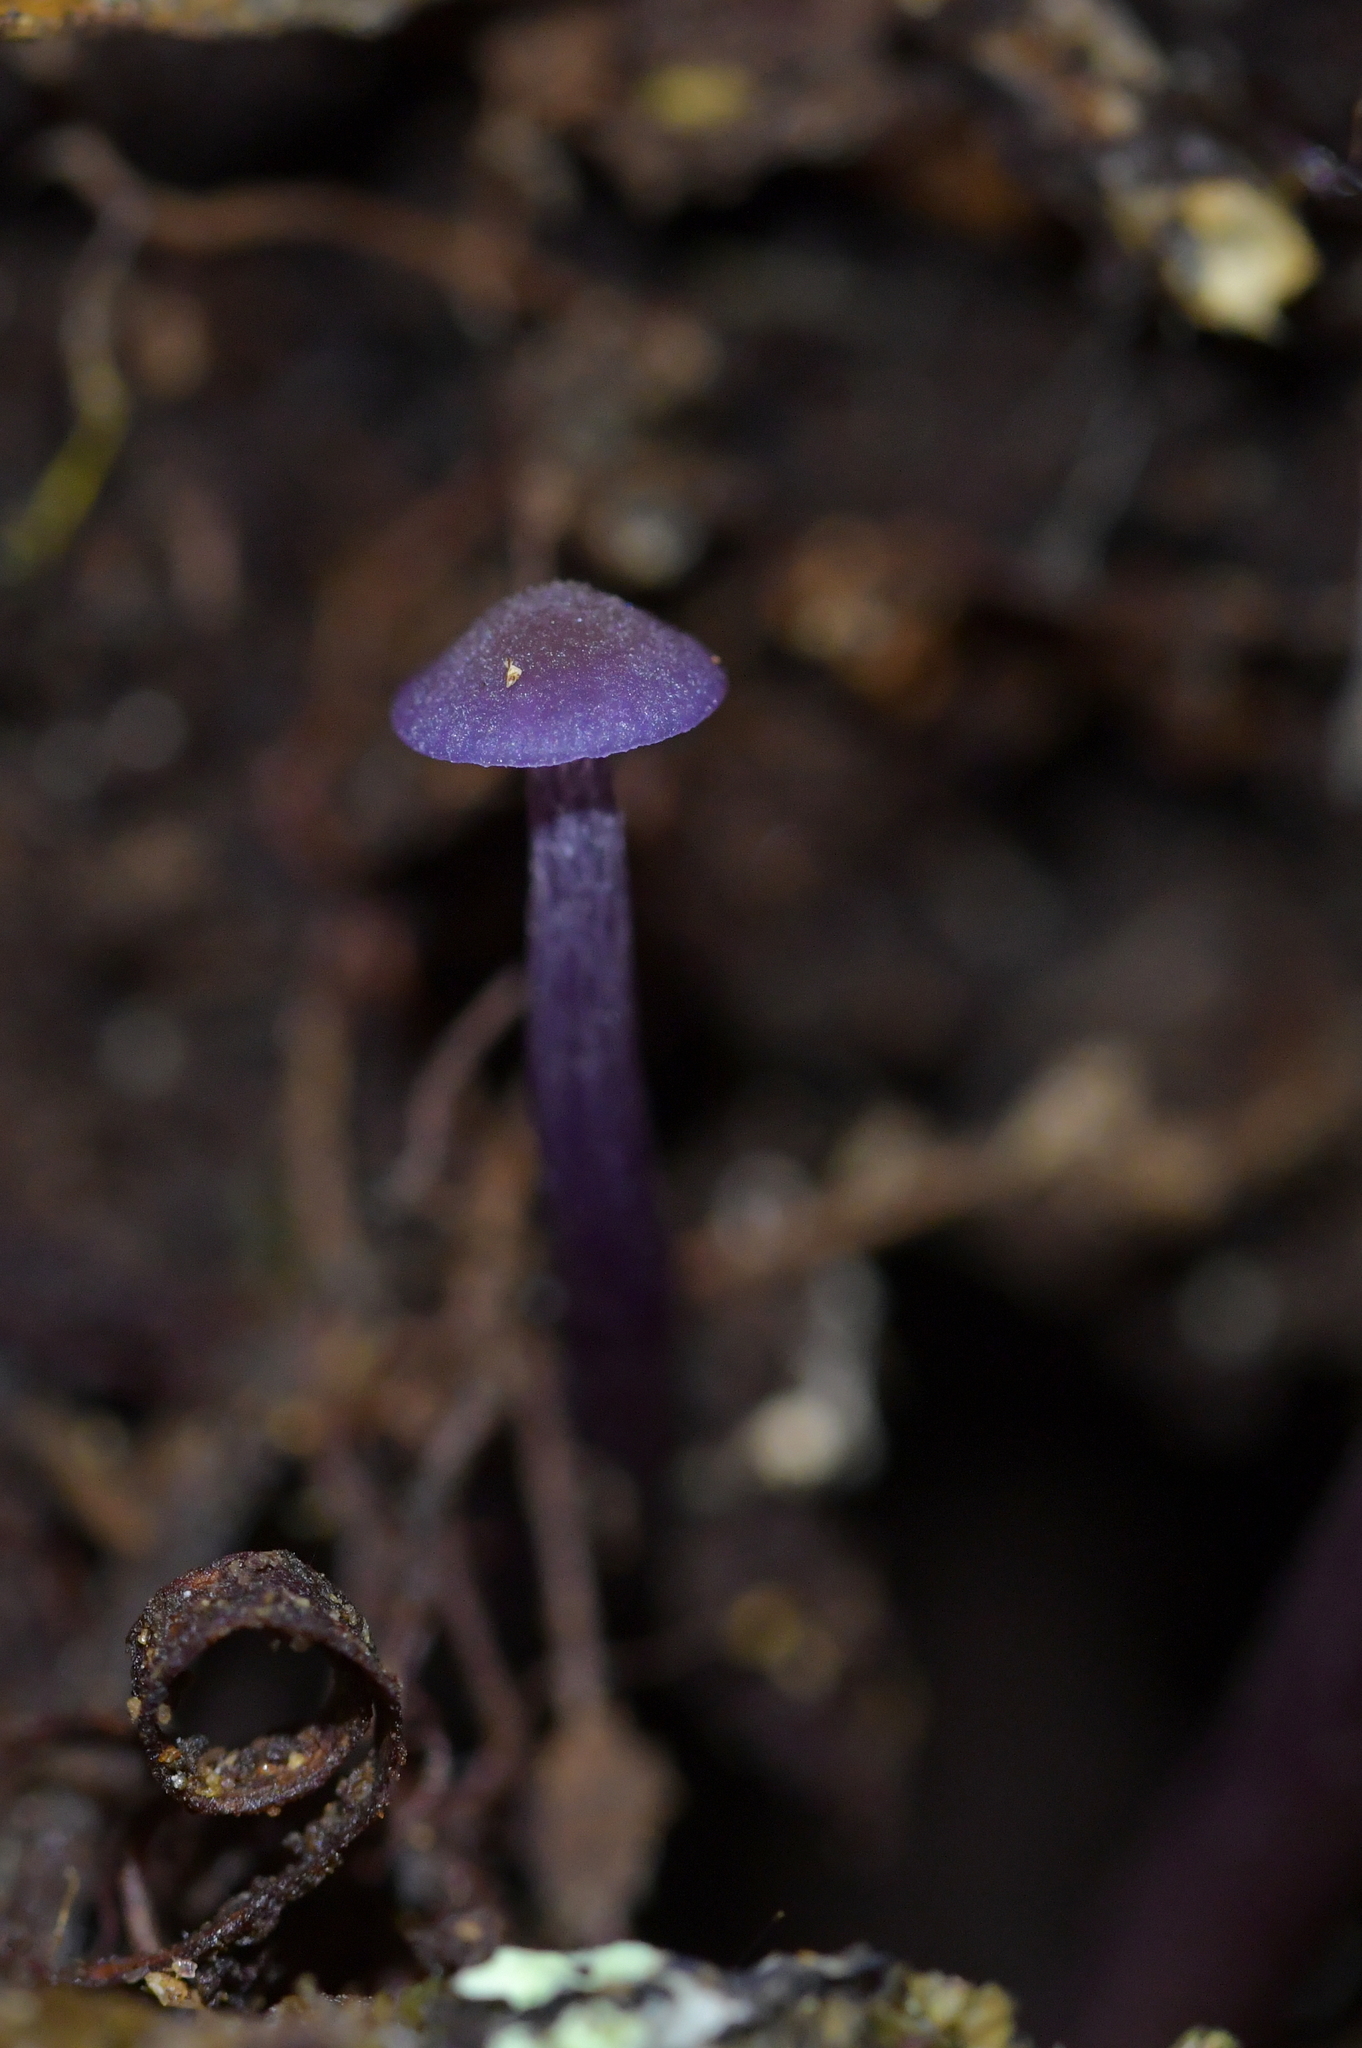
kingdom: Fungi
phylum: Basidiomycota
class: Agaricomycetes
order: Agaricales
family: Hydnangiaceae
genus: Laccaria
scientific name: Laccaria masoniae
